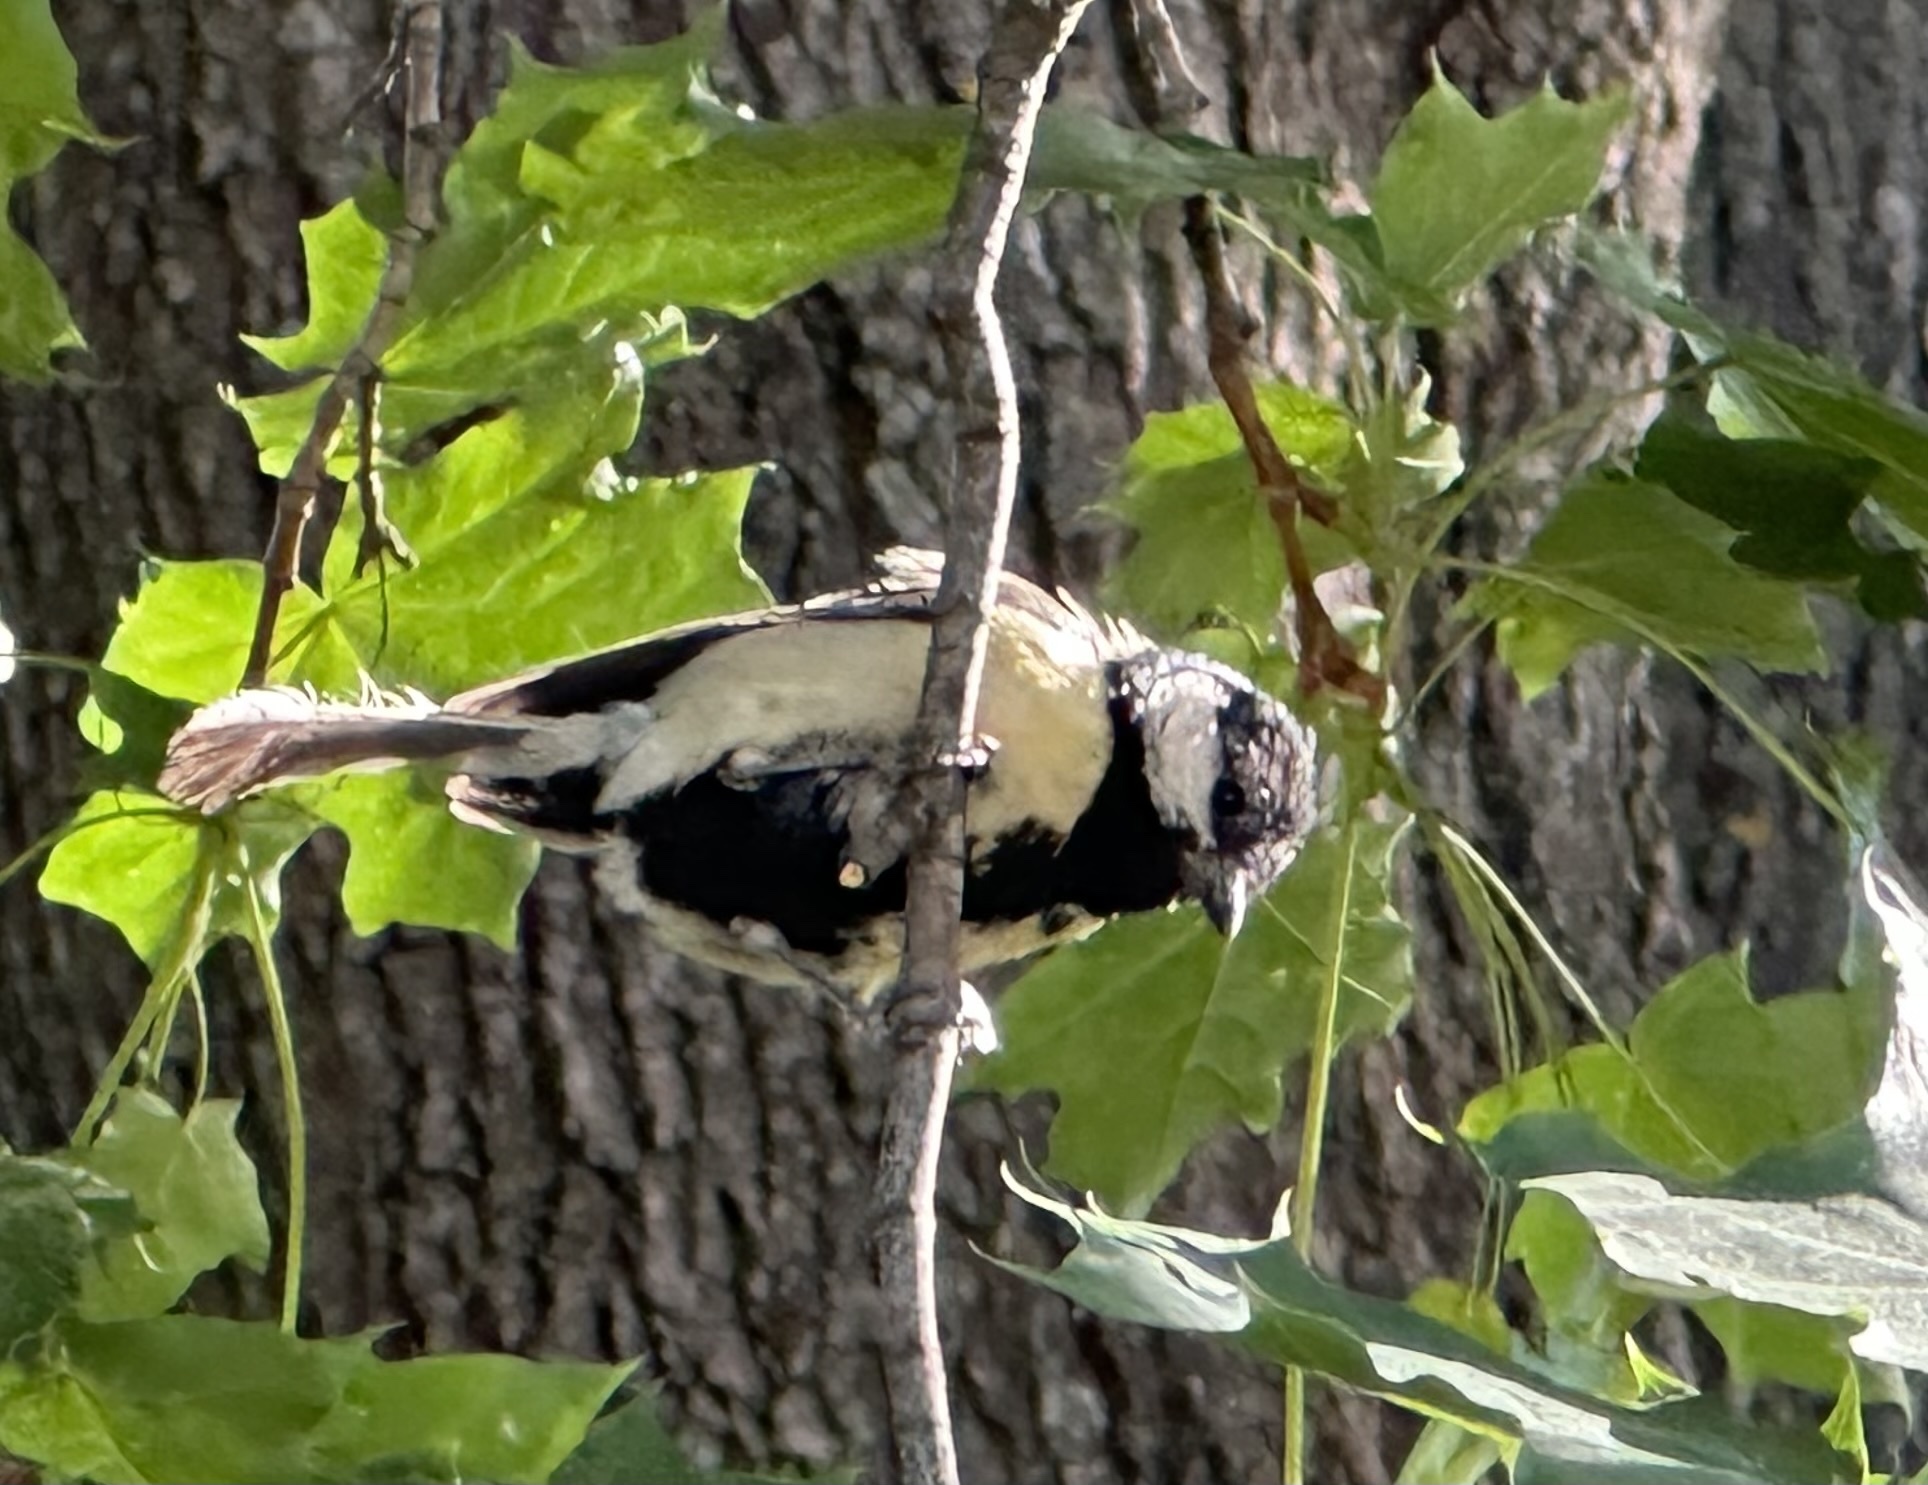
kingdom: Animalia
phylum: Chordata
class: Aves
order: Passeriformes
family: Paridae
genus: Parus
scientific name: Parus major
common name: Great tit
